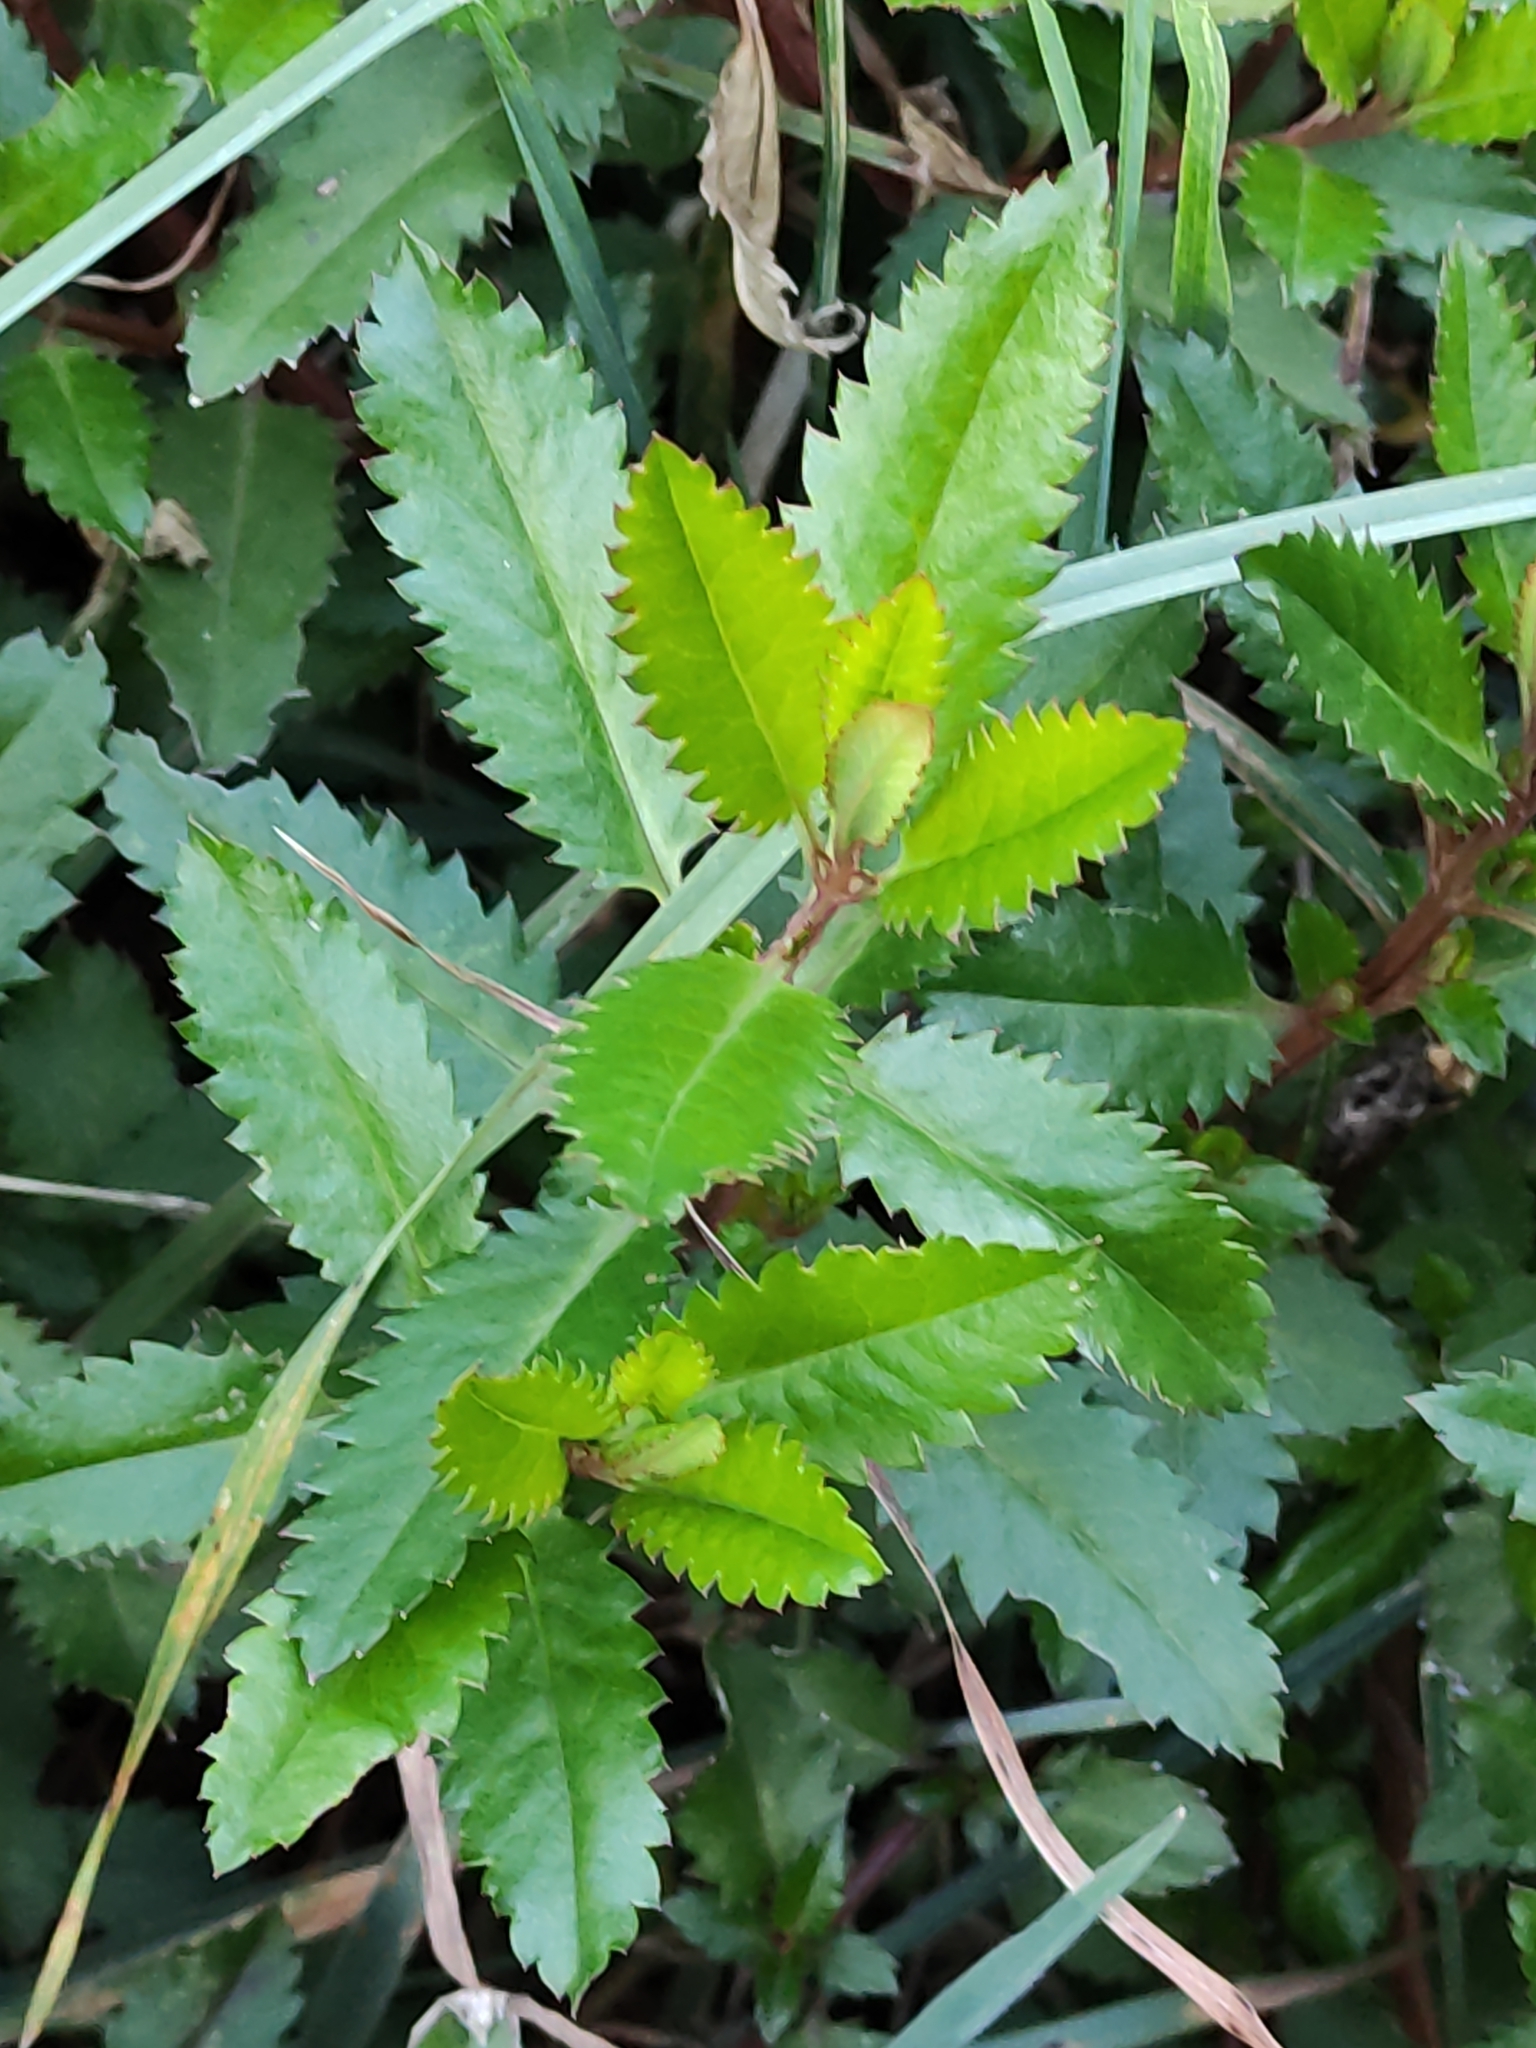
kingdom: Plantae
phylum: Tracheophyta
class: Magnoliopsida
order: Saxifragales
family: Haloragaceae
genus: Haloragis
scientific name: Haloragis erecta
